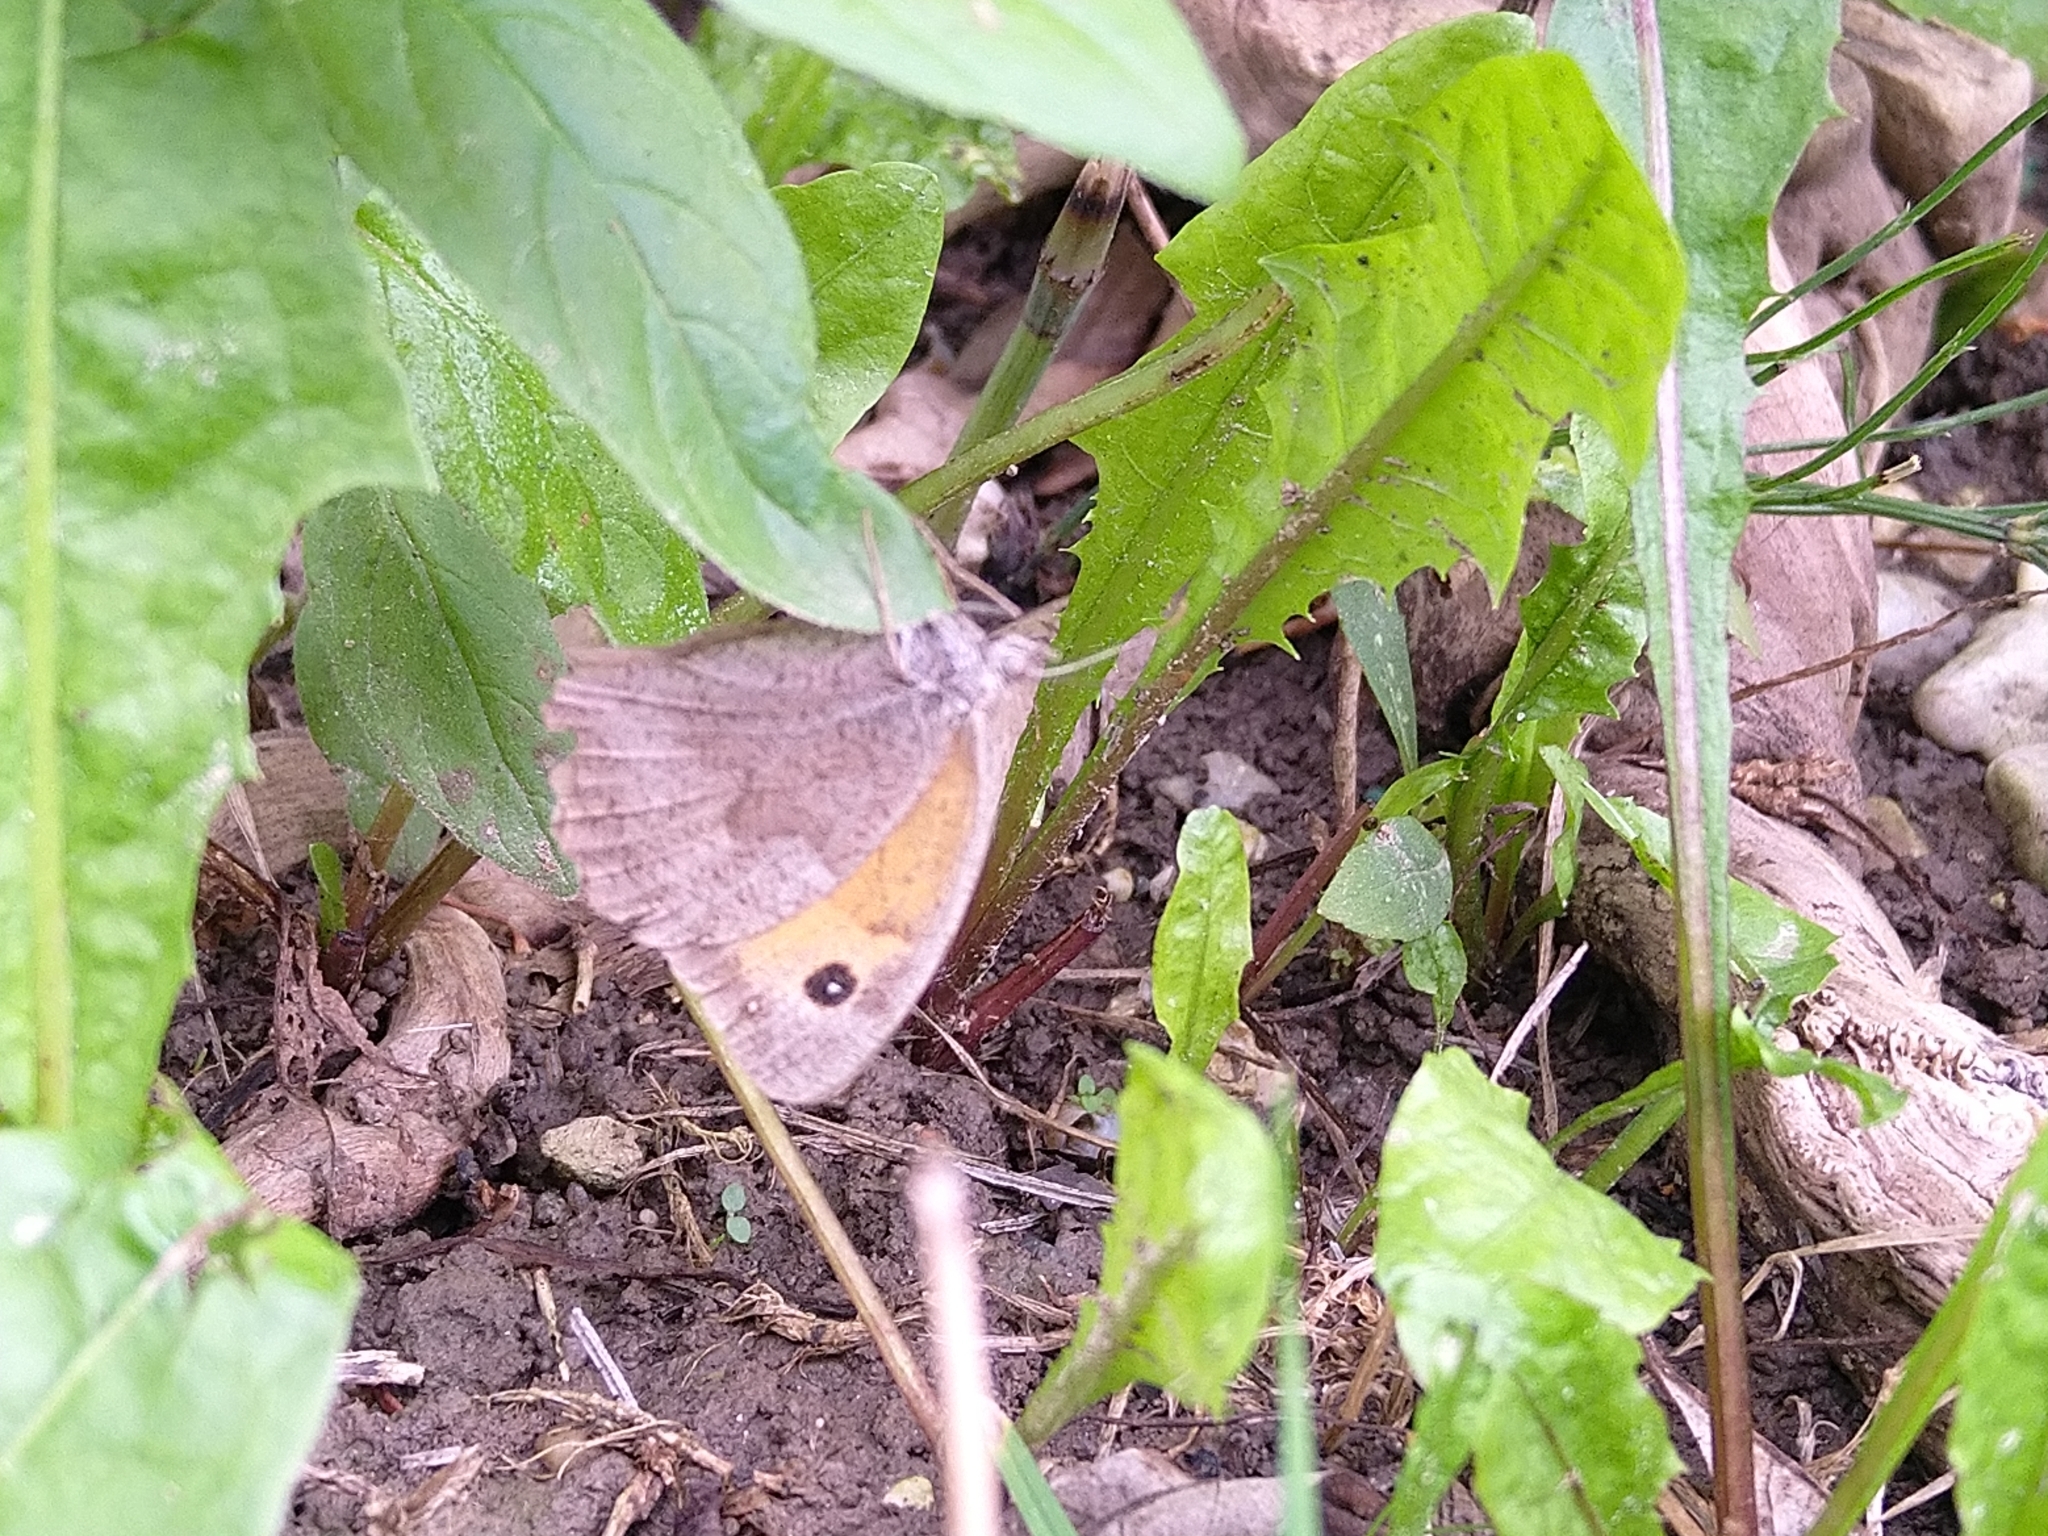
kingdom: Animalia
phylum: Arthropoda
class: Insecta
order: Lepidoptera
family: Nymphalidae
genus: Maniola
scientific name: Maniola jurtina
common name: Meadow brown
